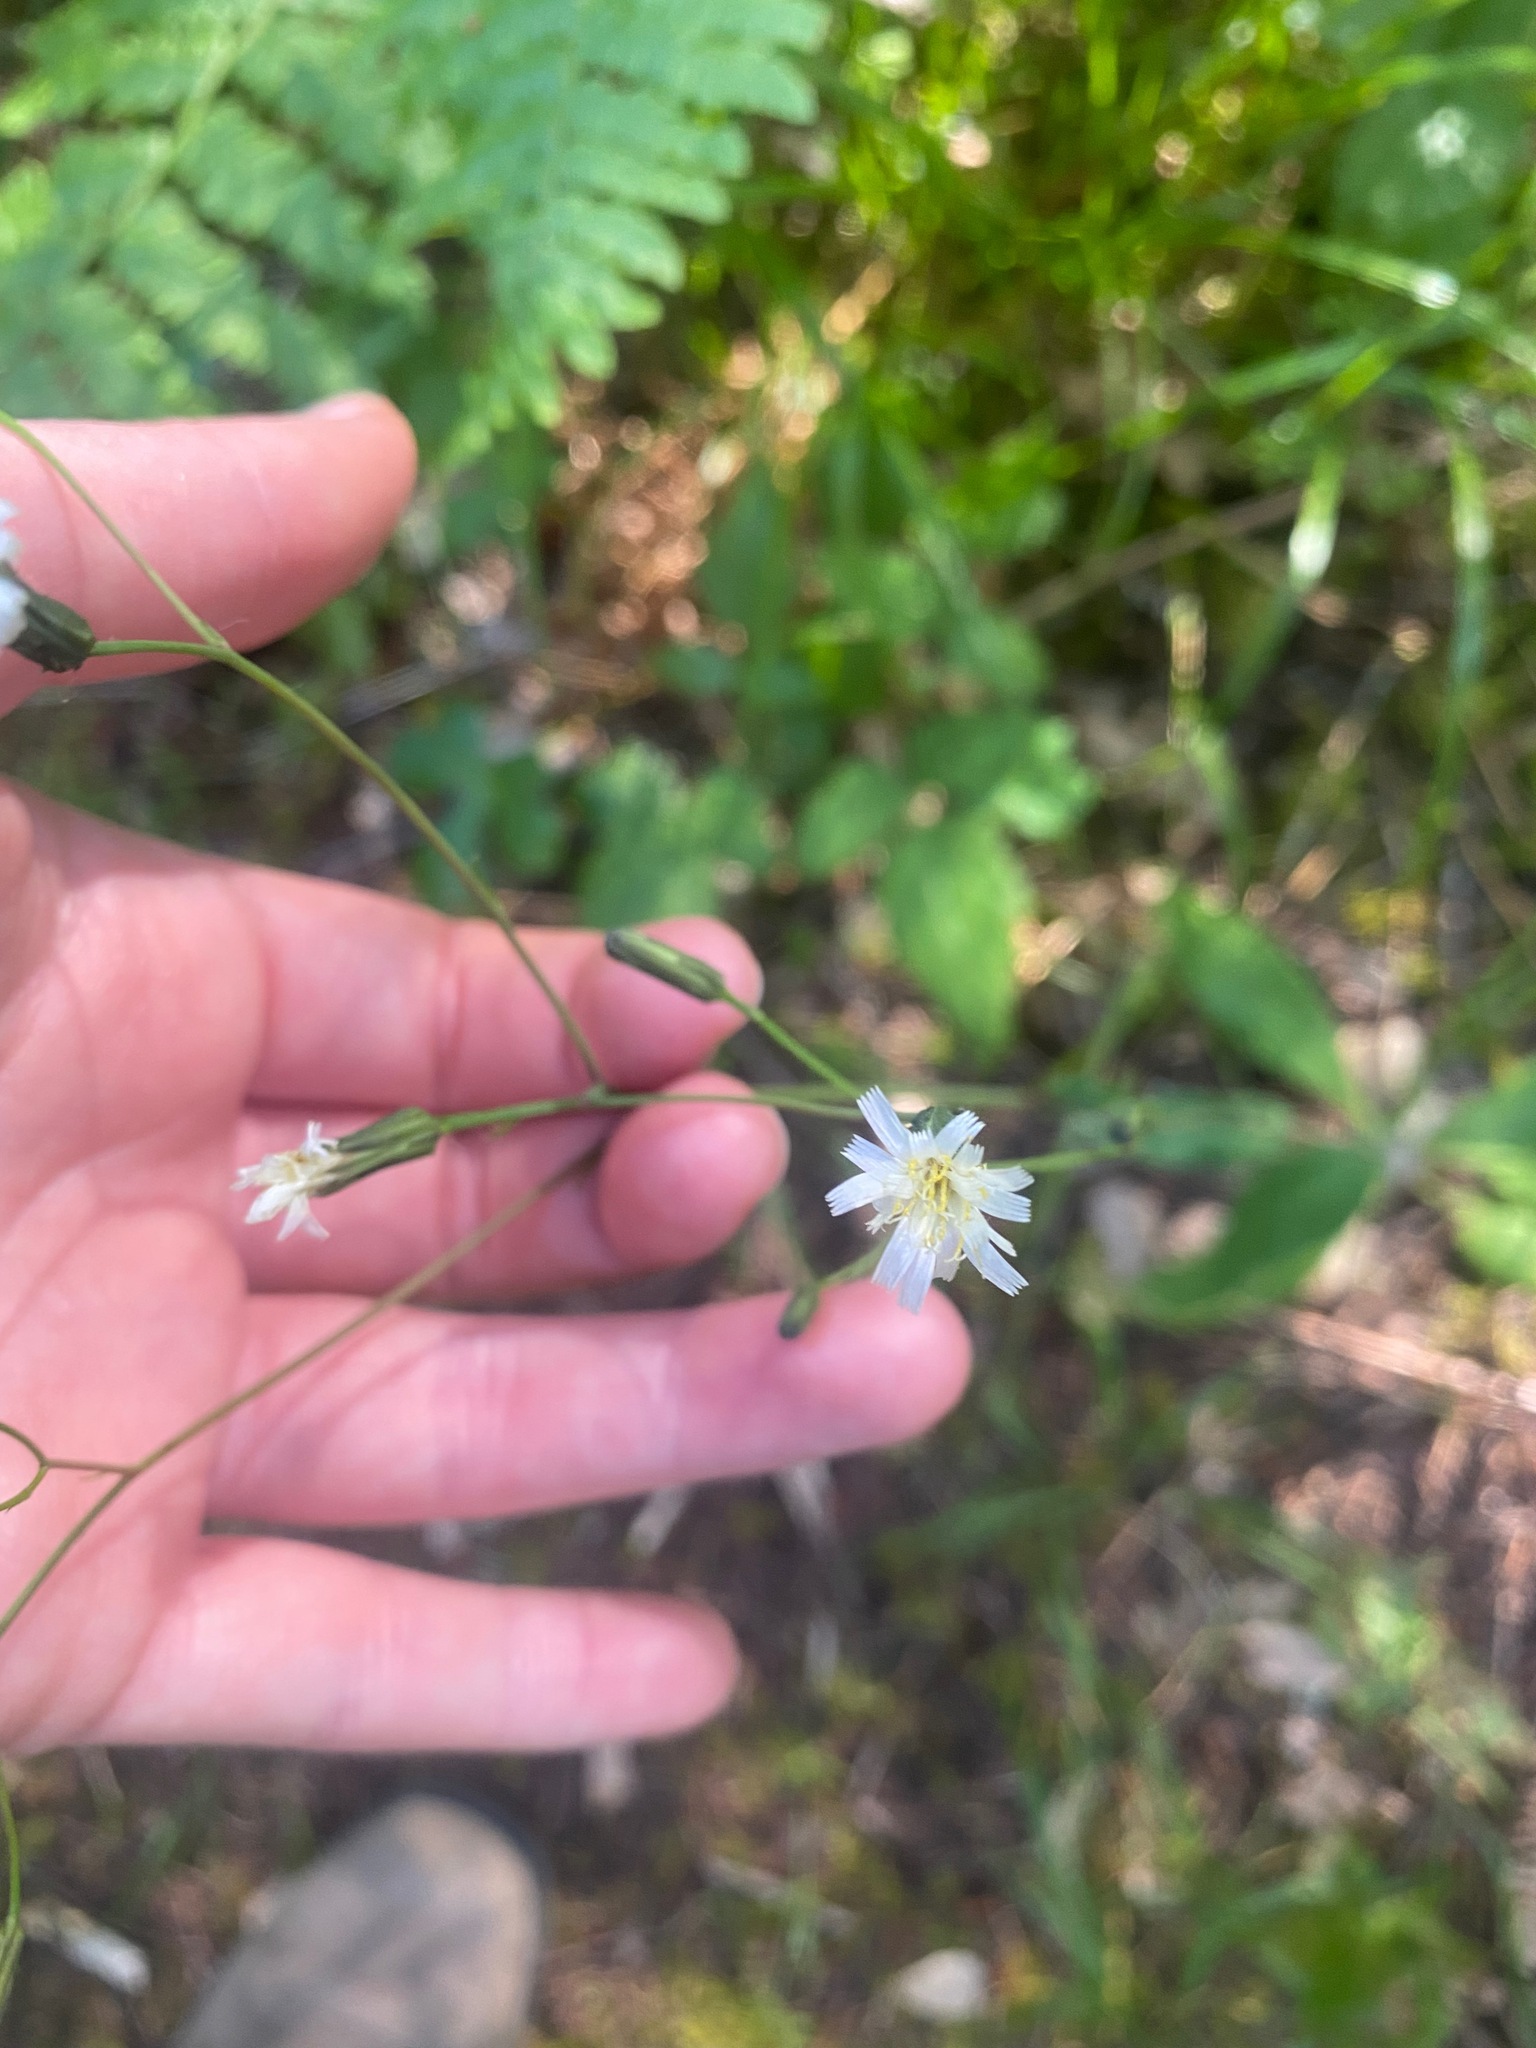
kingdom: Plantae
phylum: Tracheophyta
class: Magnoliopsida
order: Asterales
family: Asteraceae
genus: Hieracium
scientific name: Hieracium albiflorum
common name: White hawkweed
